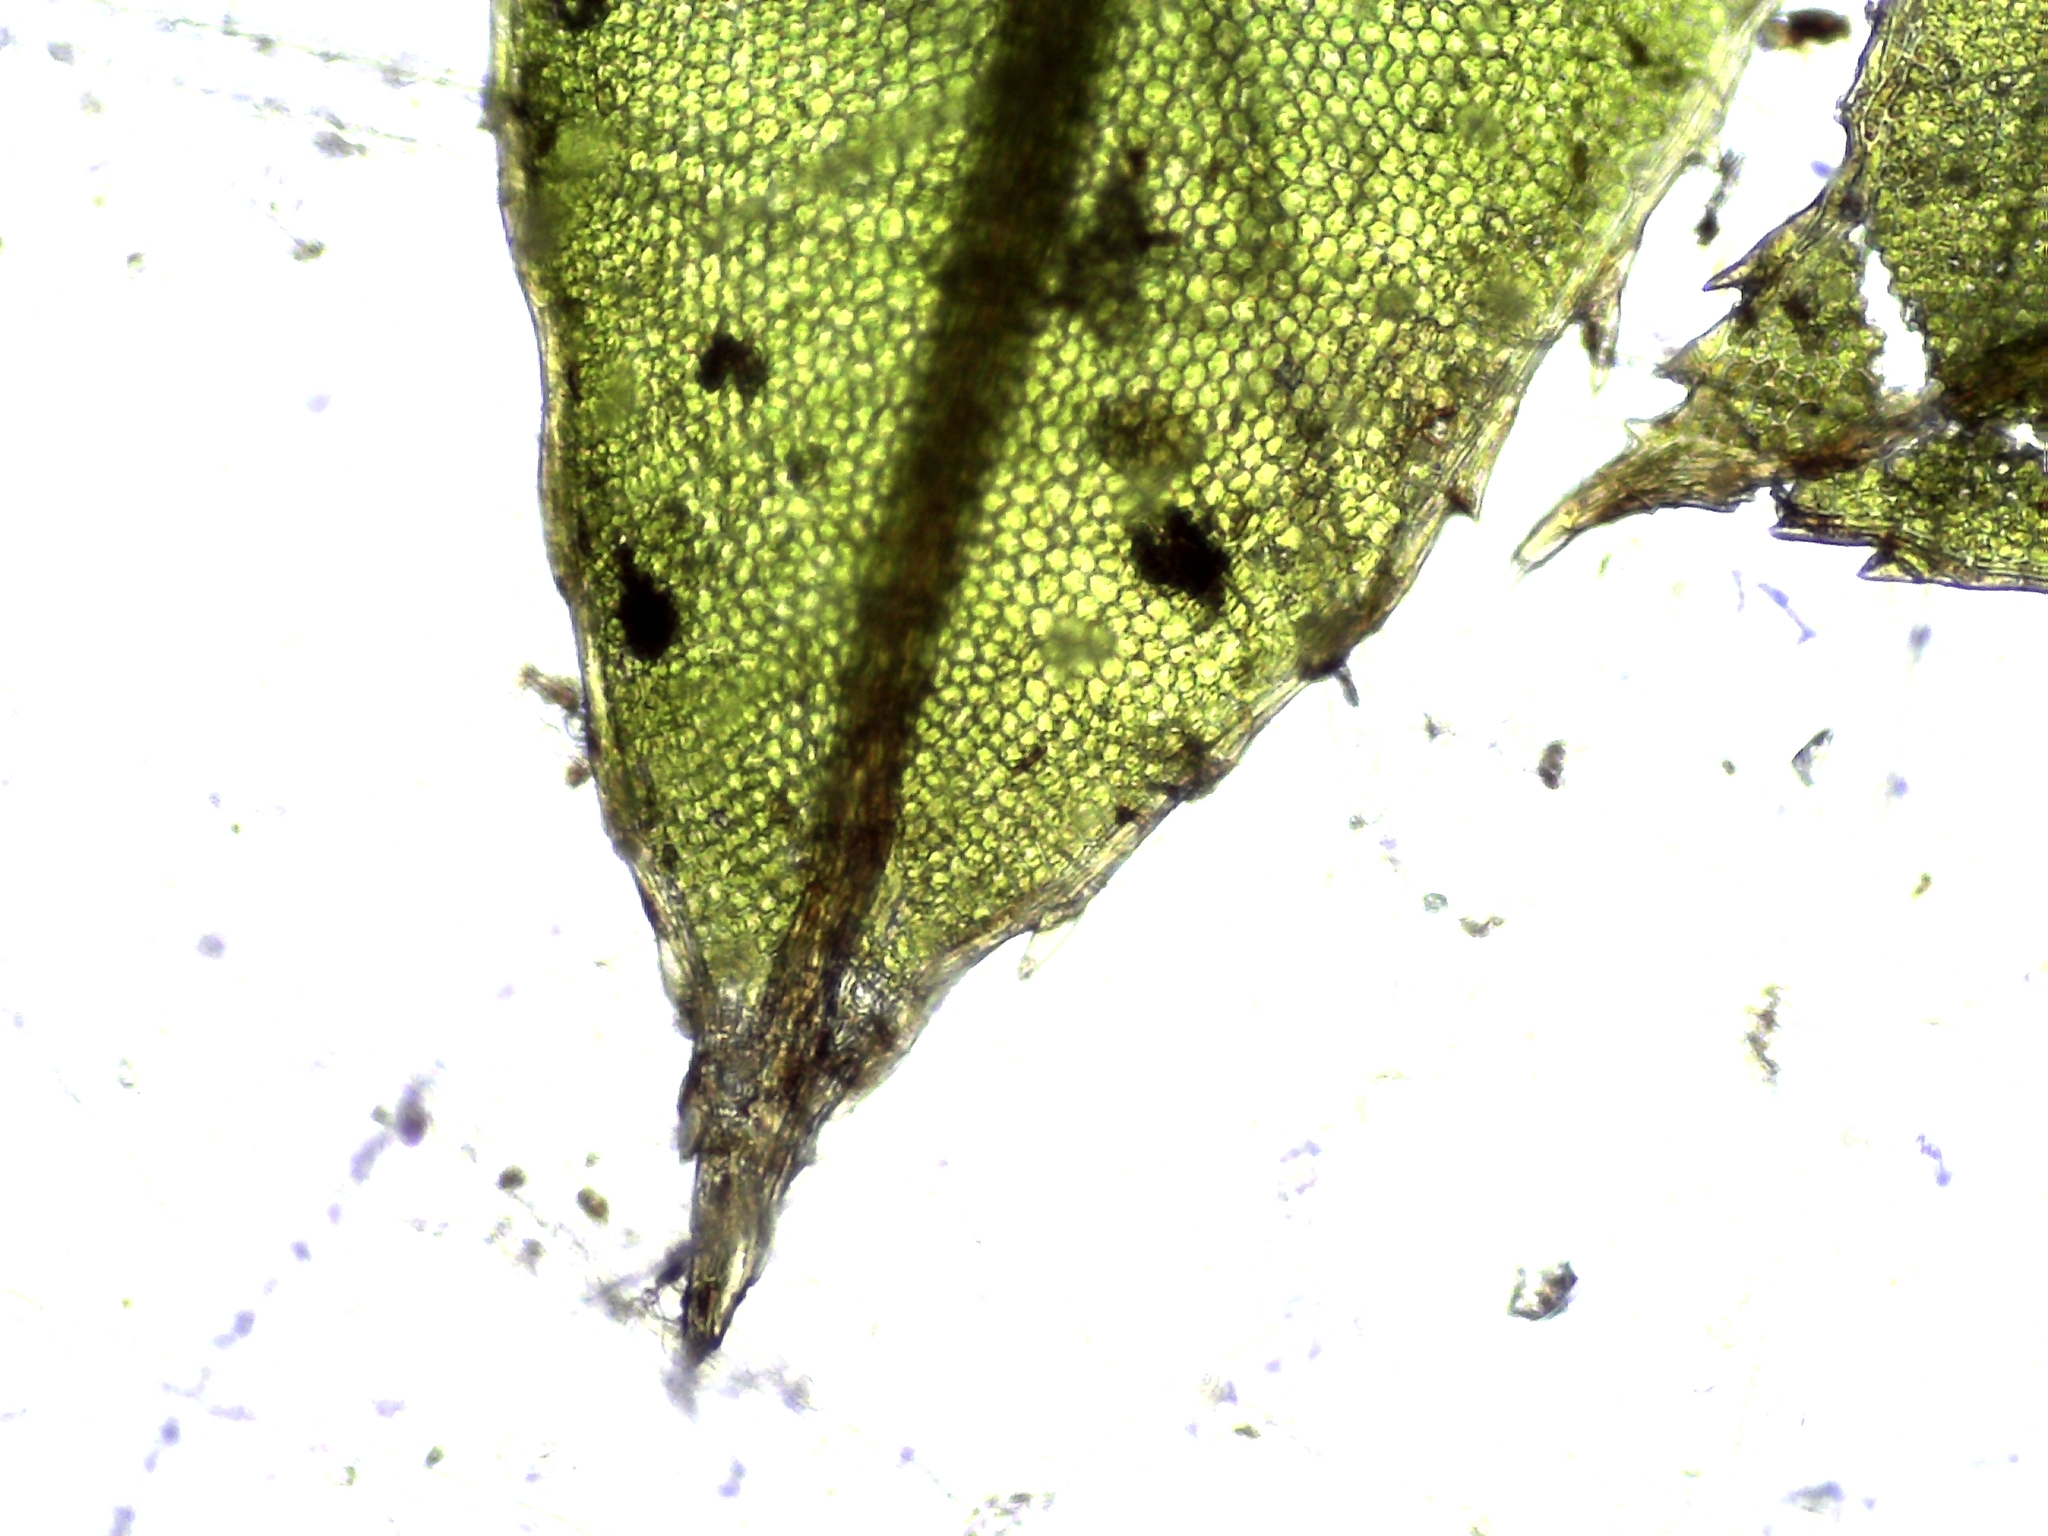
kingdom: Plantae
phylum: Bryophyta
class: Bryopsida
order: Bryales
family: Mniaceae
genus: Plagiomnium
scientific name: Plagiomnium cuspidatum
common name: Woodsy leafy moss
